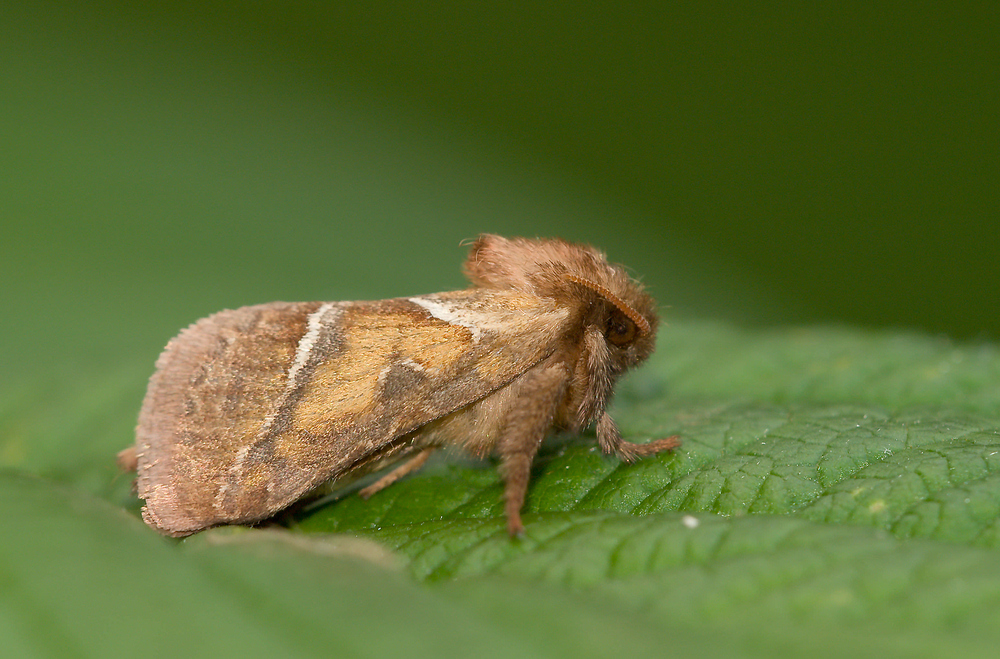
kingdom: Animalia
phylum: Arthropoda
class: Insecta
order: Lepidoptera
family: Hepialidae
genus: Triodia
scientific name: Triodia sylvina
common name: Orange swift
